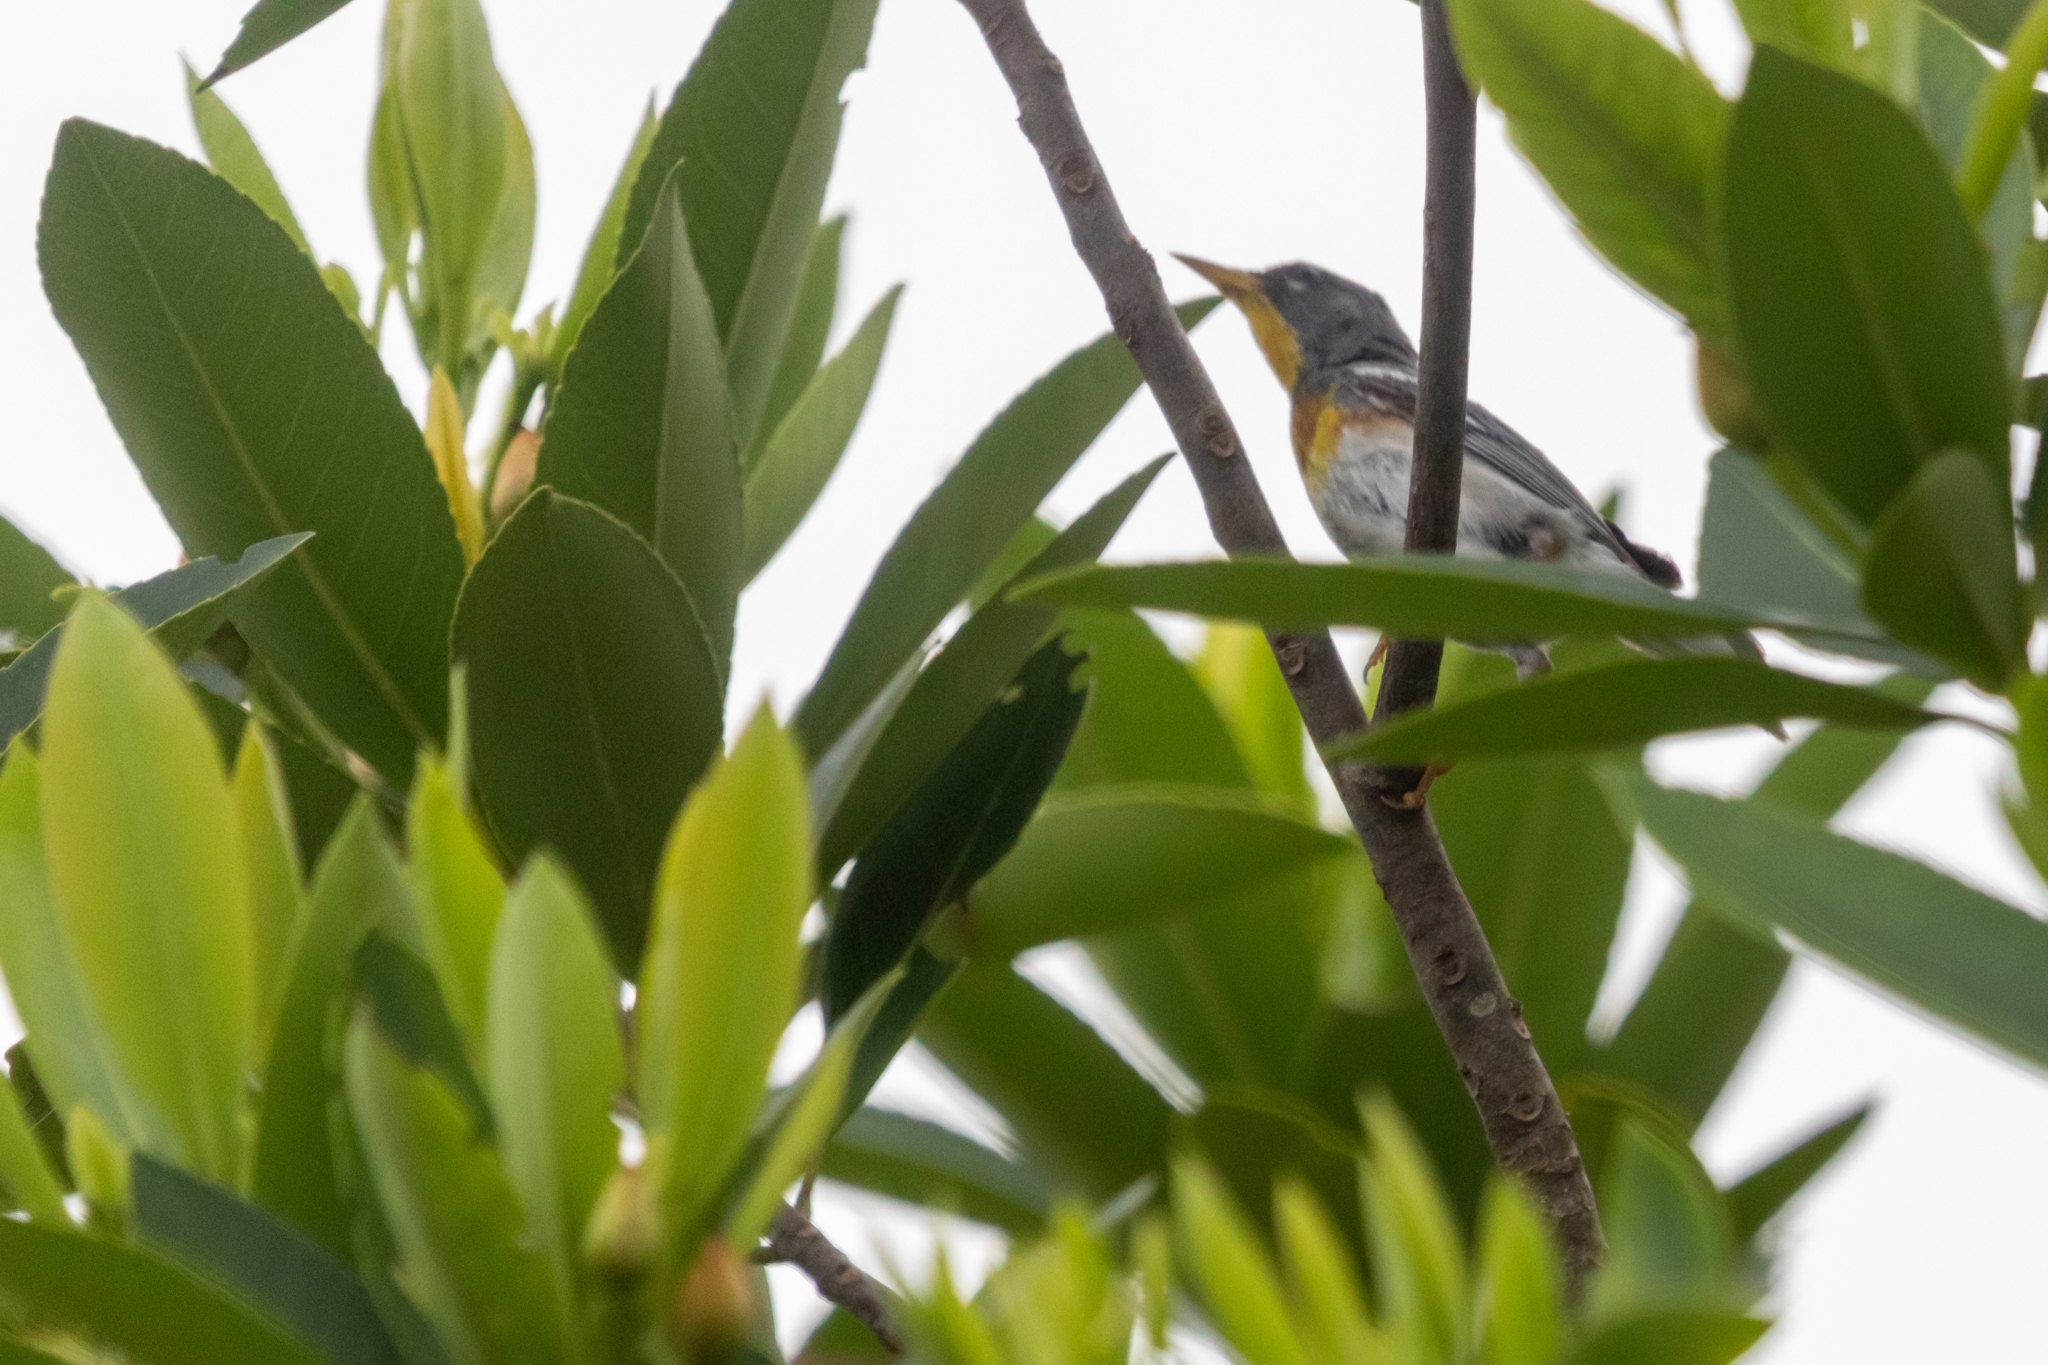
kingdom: Animalia
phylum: Chordata
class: Aves
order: Passeriformes
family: Parulidae
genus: Setophaga
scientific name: Setophaga americana
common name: Northern parula
